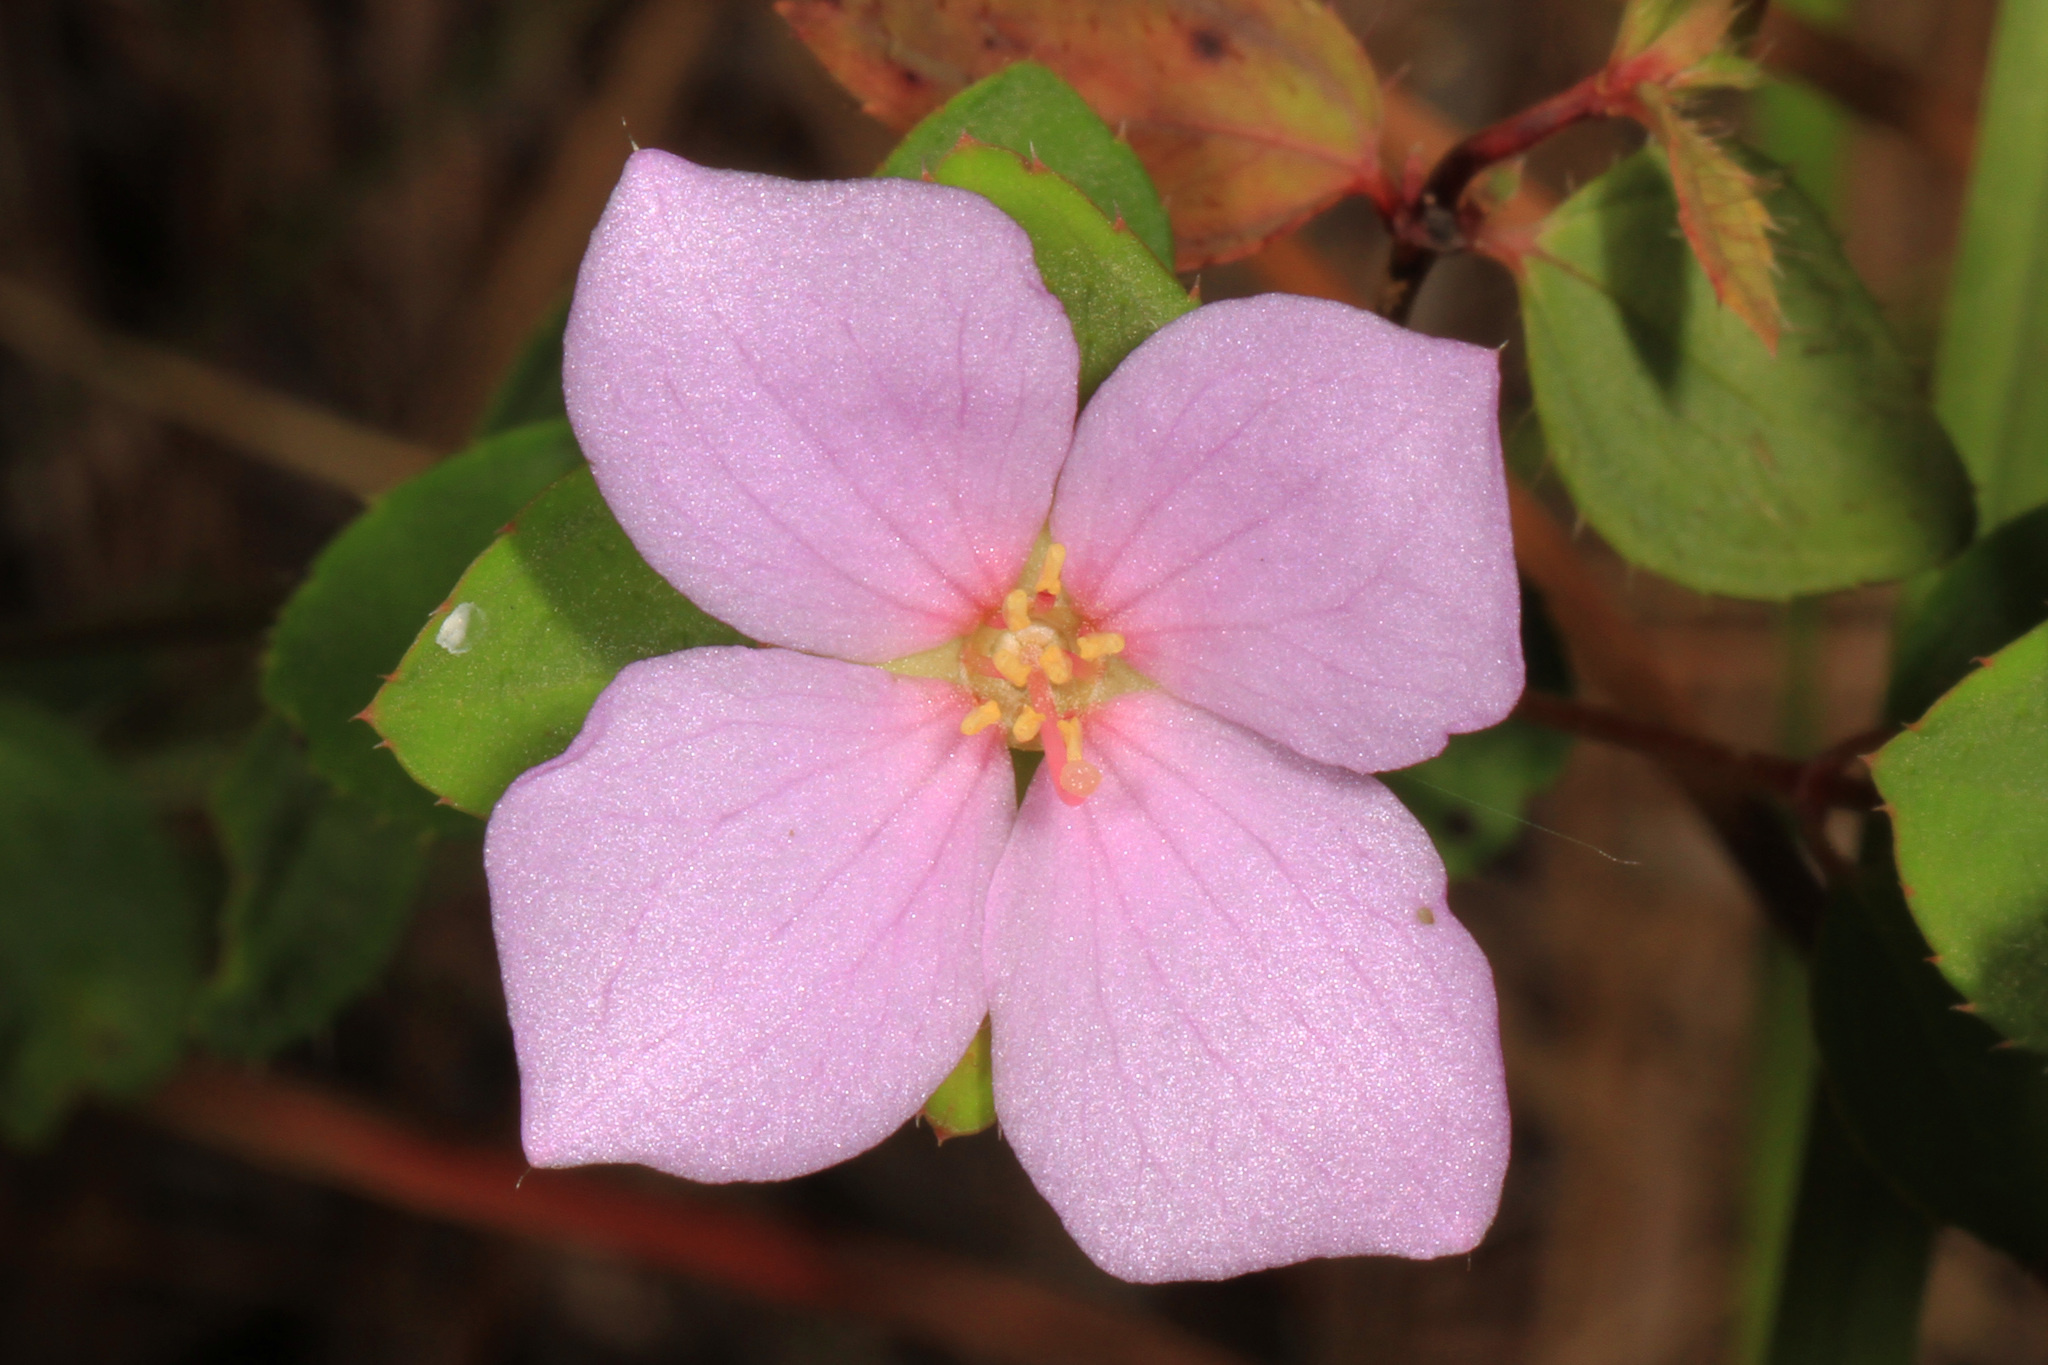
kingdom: Plantae
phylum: Tracheophyta
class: Magnoliopsida
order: Myrtales
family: Melastomataceae
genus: Rhexia
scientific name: Rhexia petiolata
